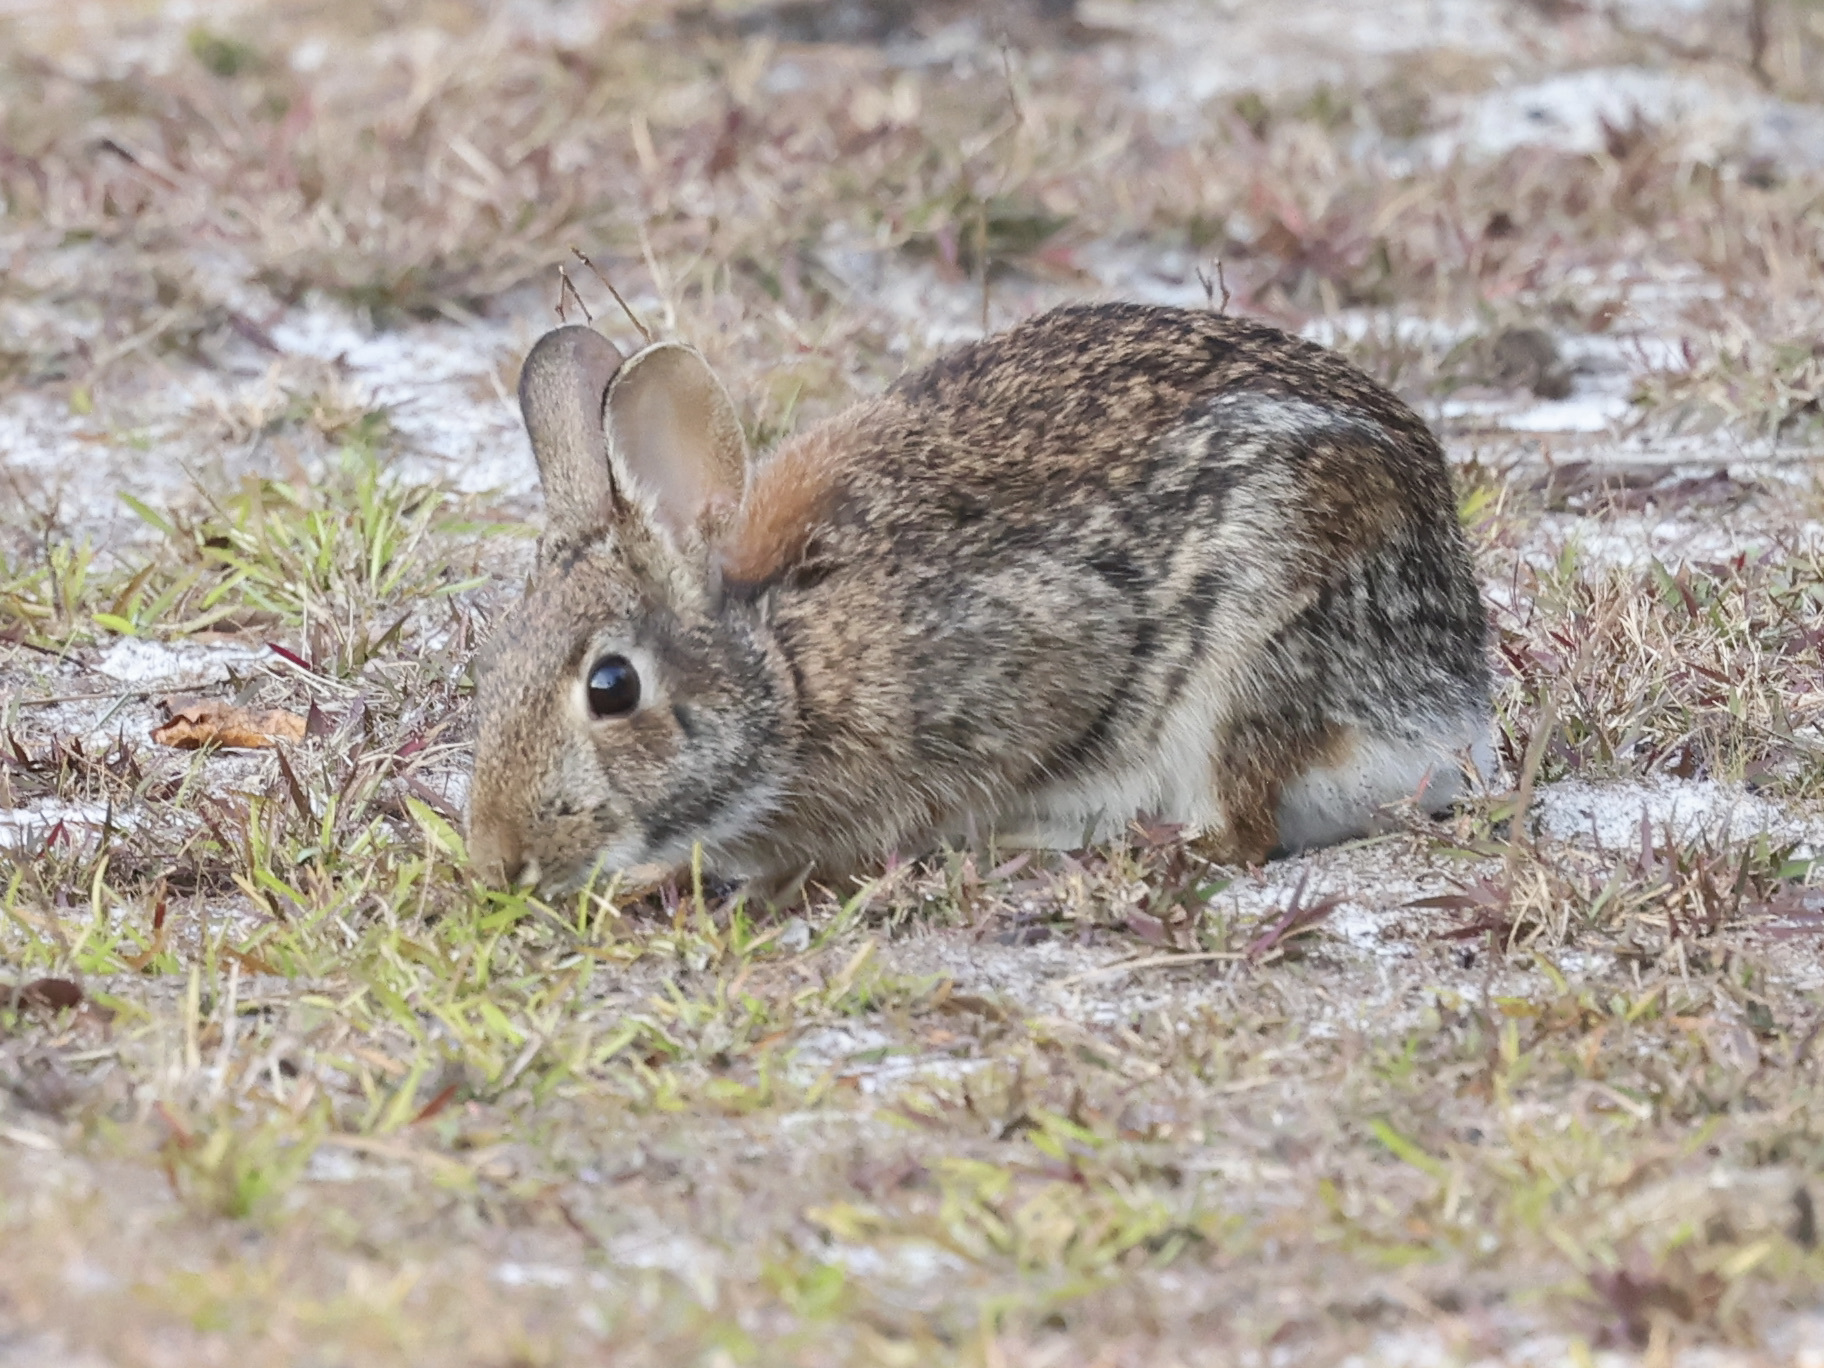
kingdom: Animalia
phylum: Chordata
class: Mammalia
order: Lagomorpha
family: Leporidae
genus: Sylvilagus
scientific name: Sylvilagus floridanus
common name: Eastern cottontail
